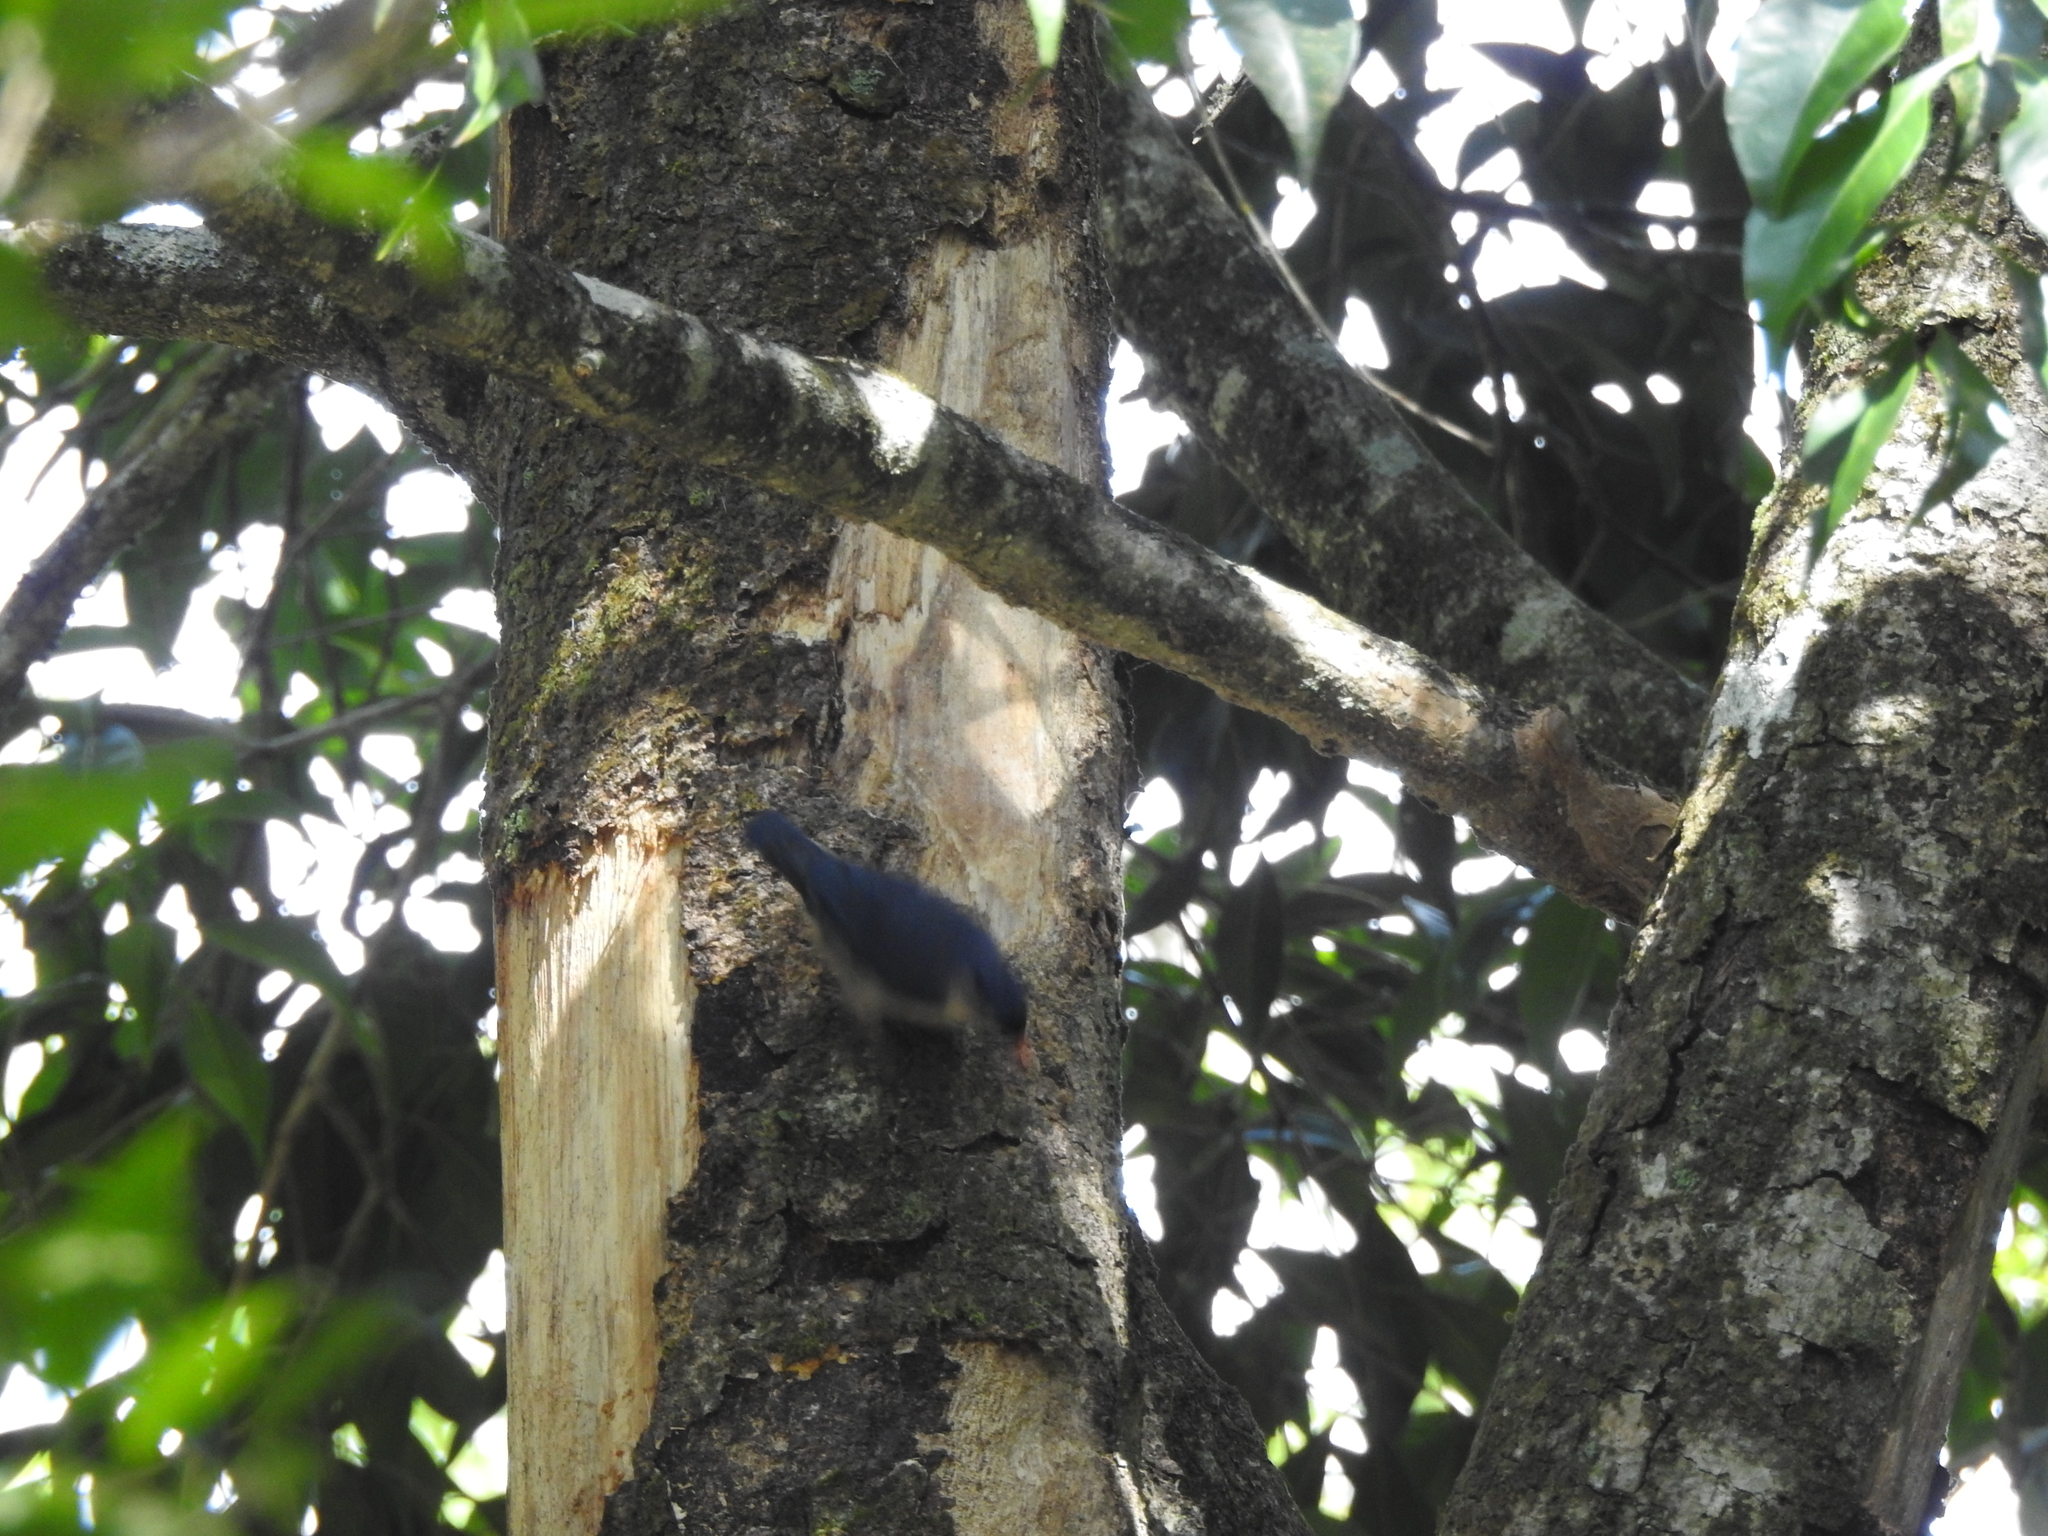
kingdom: Animalia
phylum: Chordata
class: Aves
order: Passeriformes
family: Sittidae
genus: Sitta
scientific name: Sitta frontalis
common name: Velvet-fronted nuthatch
